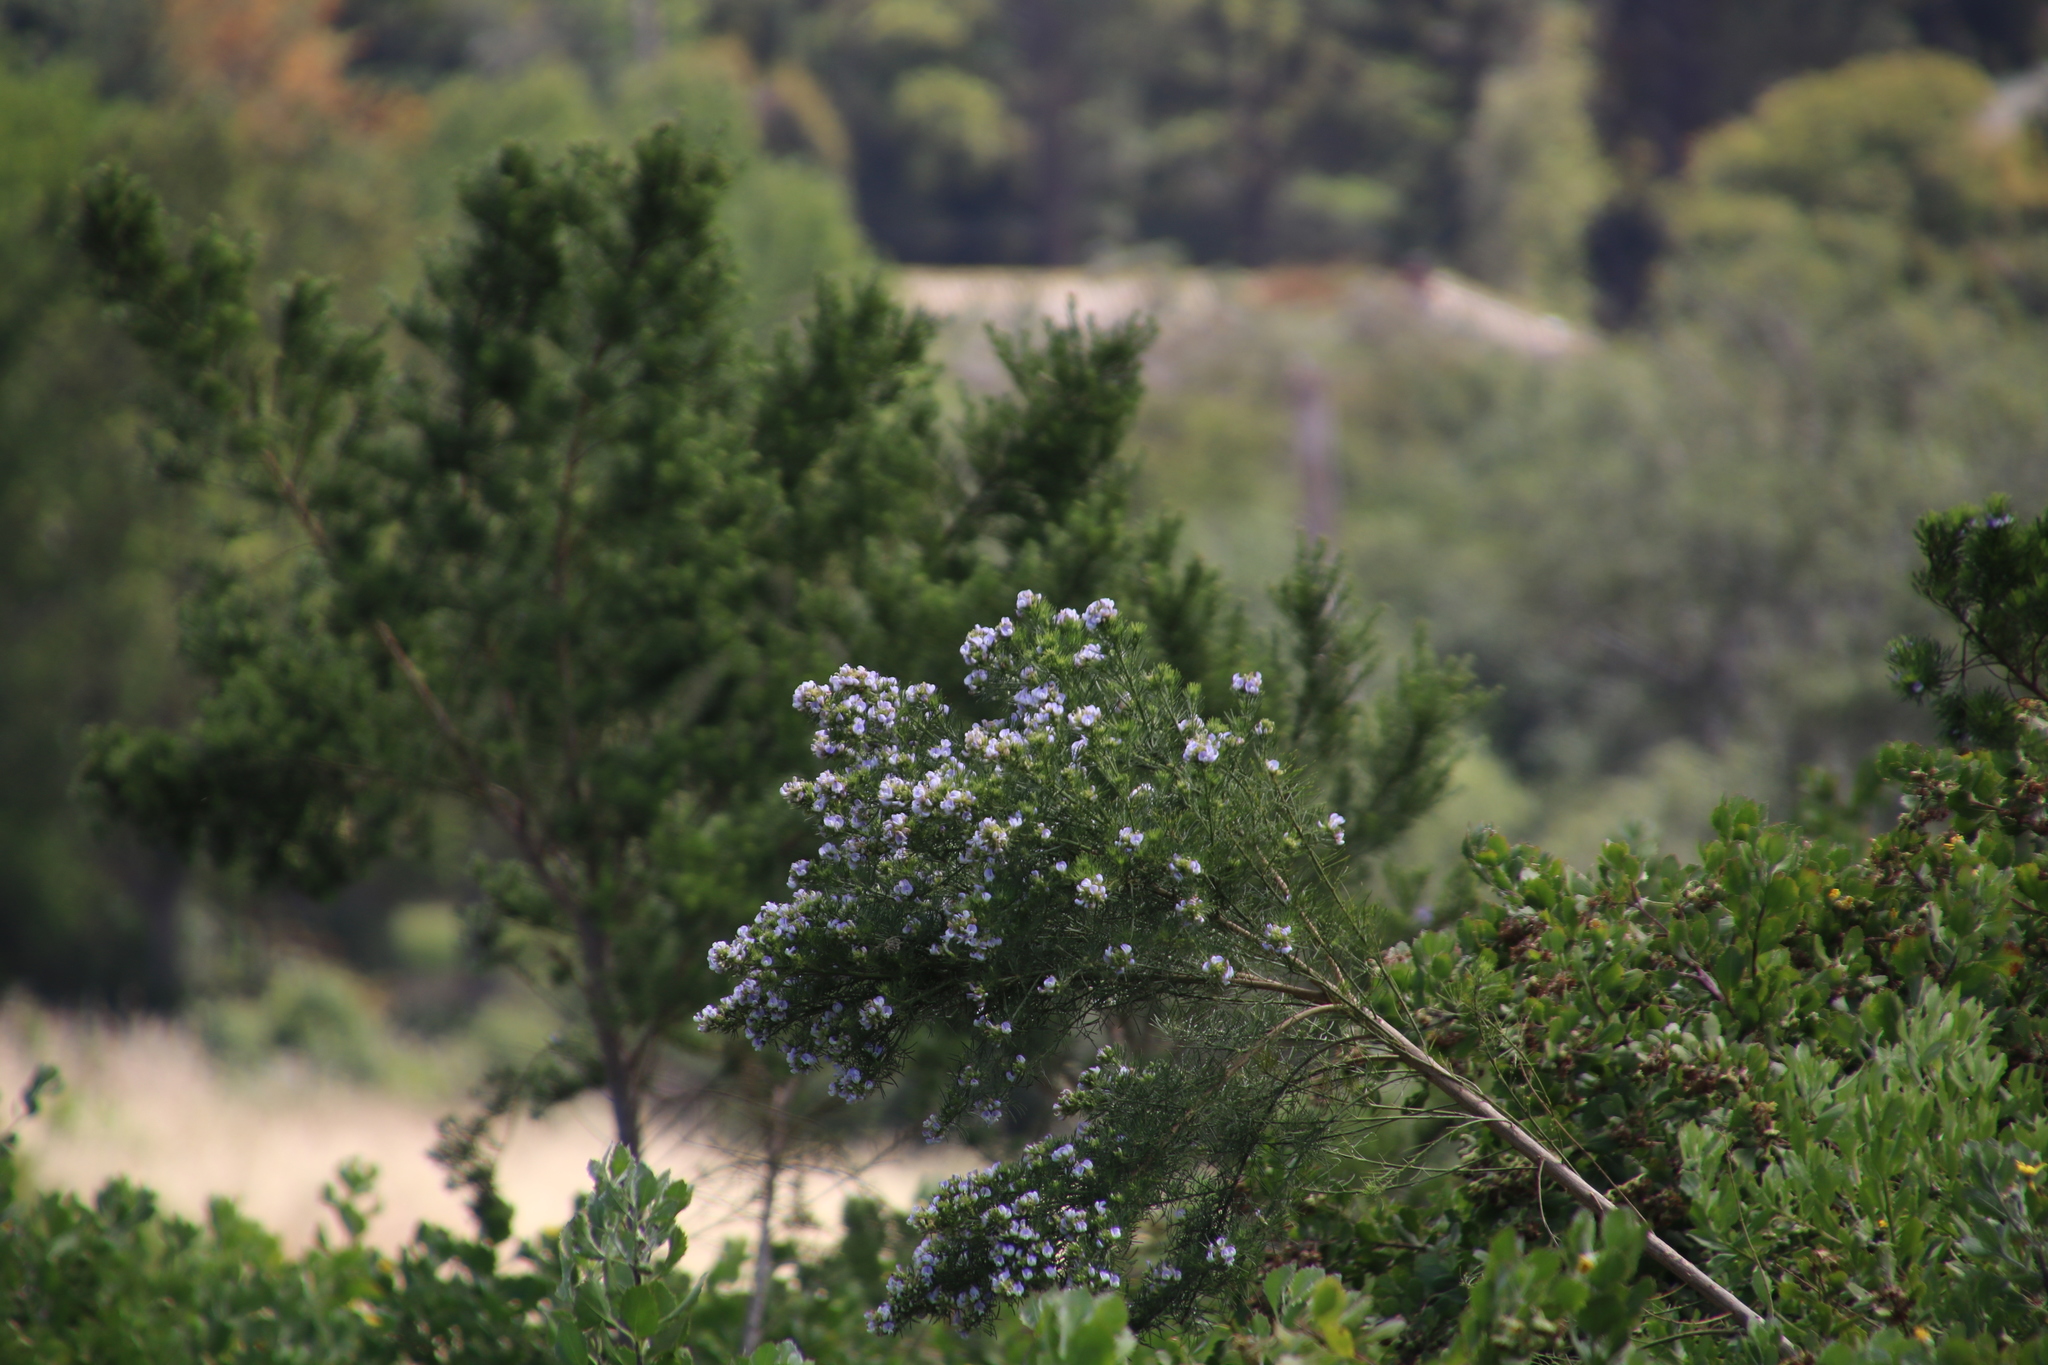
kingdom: Plantae
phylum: Tracheophyta
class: Magnoliopsida
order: Fabales
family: Fabaceae
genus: Psoralea
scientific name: Psoralea pinnata
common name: African scurfpea
